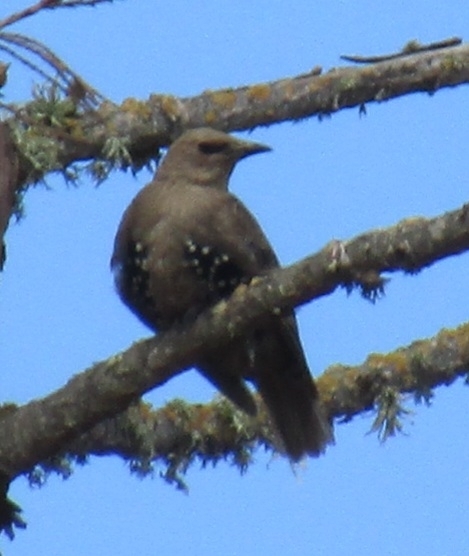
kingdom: Animalia
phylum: Chordata
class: Aves
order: Passeriformes
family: Sturnidae
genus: Sturnus
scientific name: Sturnus vulgaris
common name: Common starling
